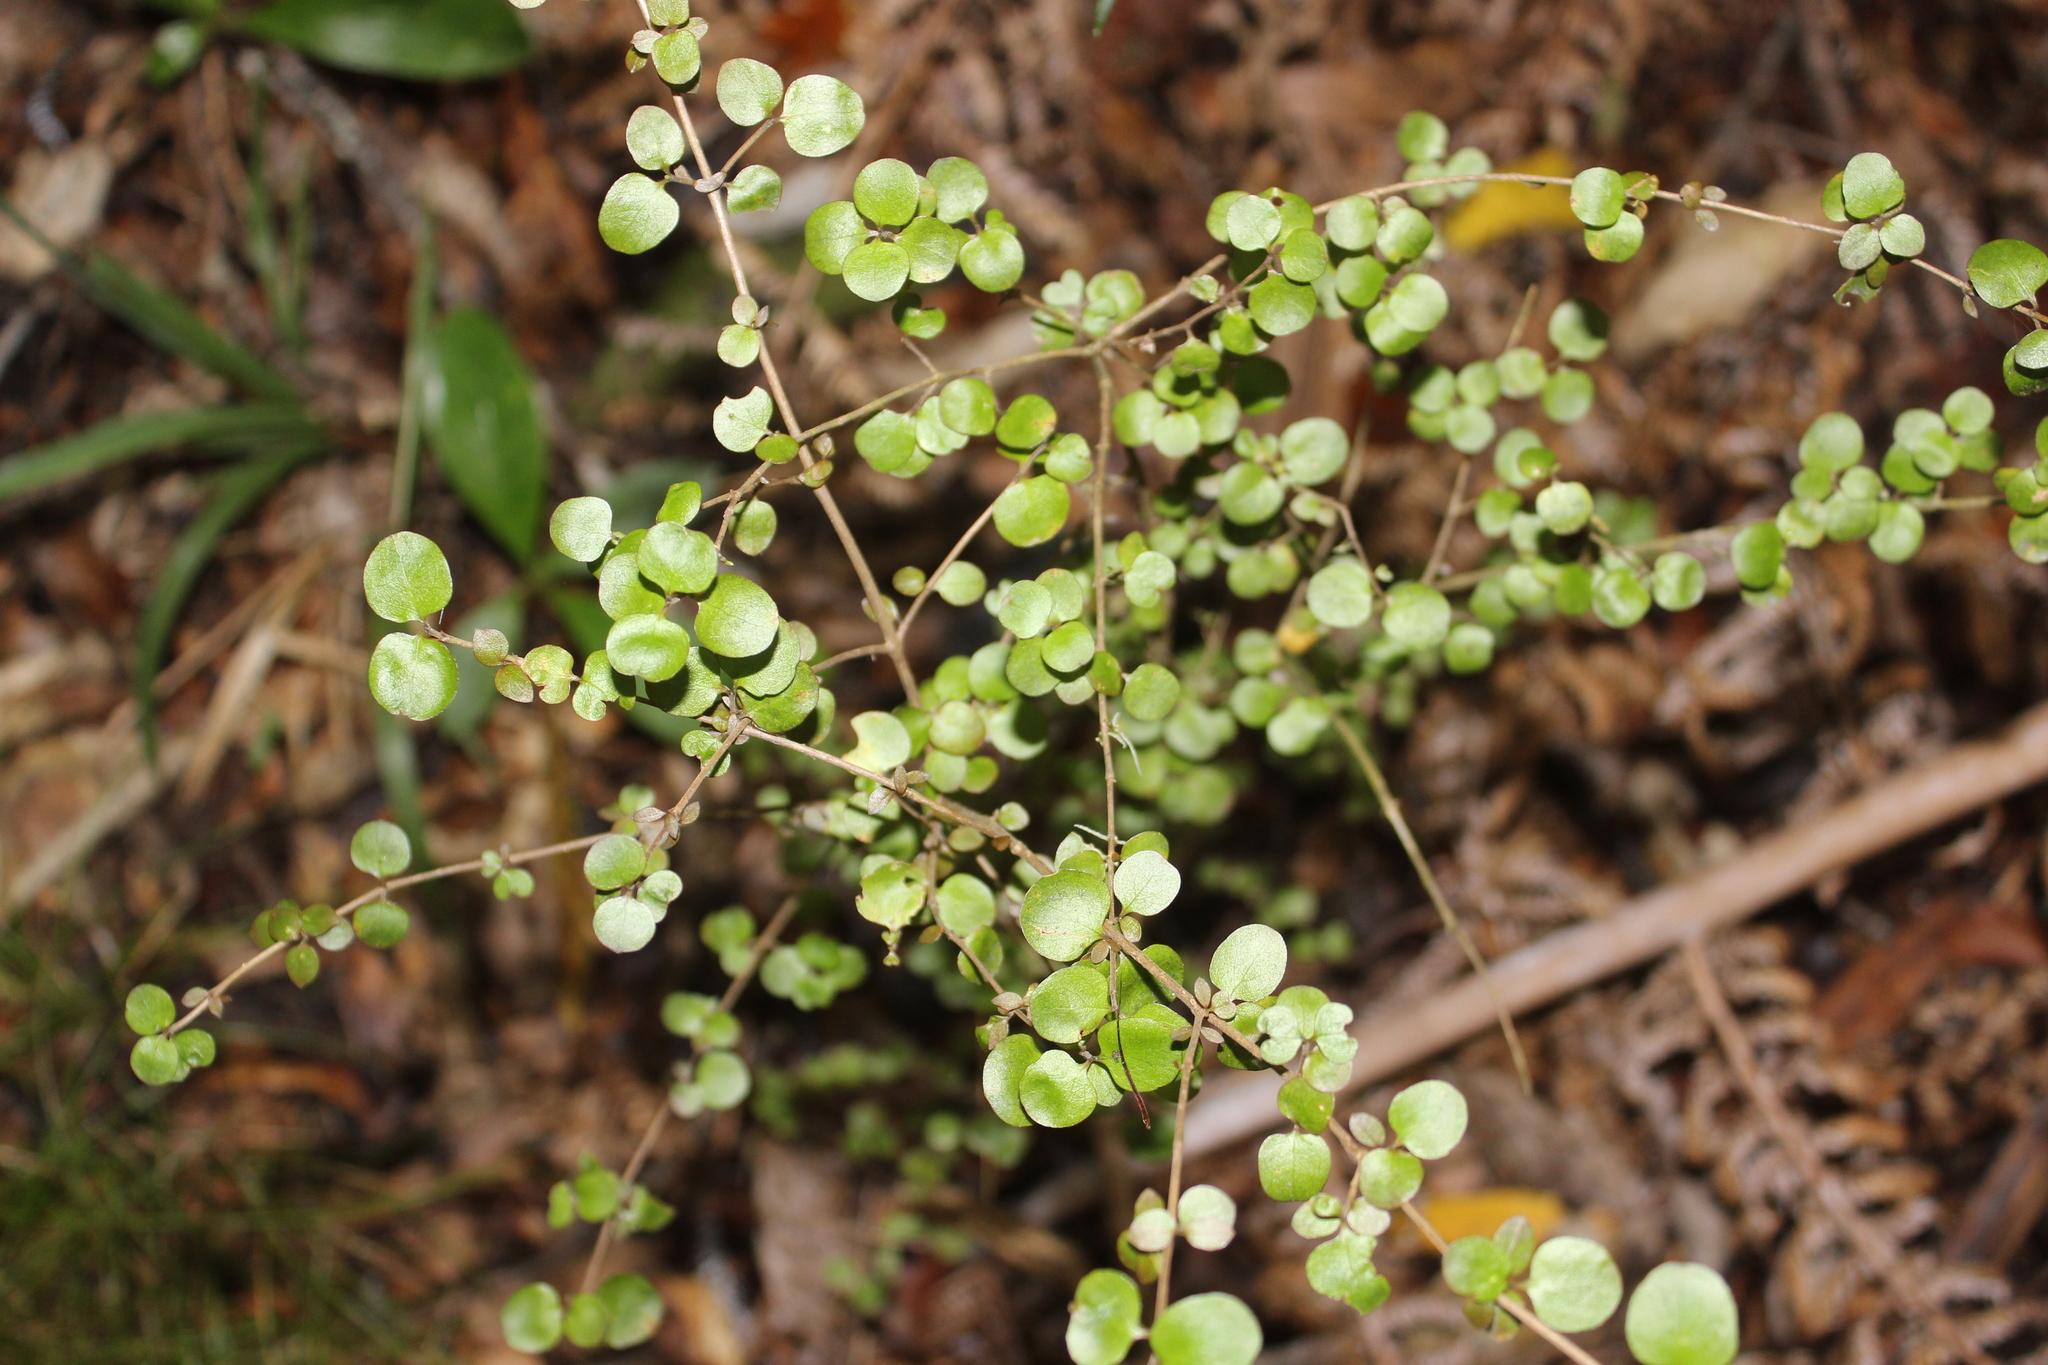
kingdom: Plantae
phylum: Tracheophyta
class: Magnoliopsida
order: Gentianales
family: Rubiaceae
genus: Coprosma
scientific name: Coprosma rhamnoides
